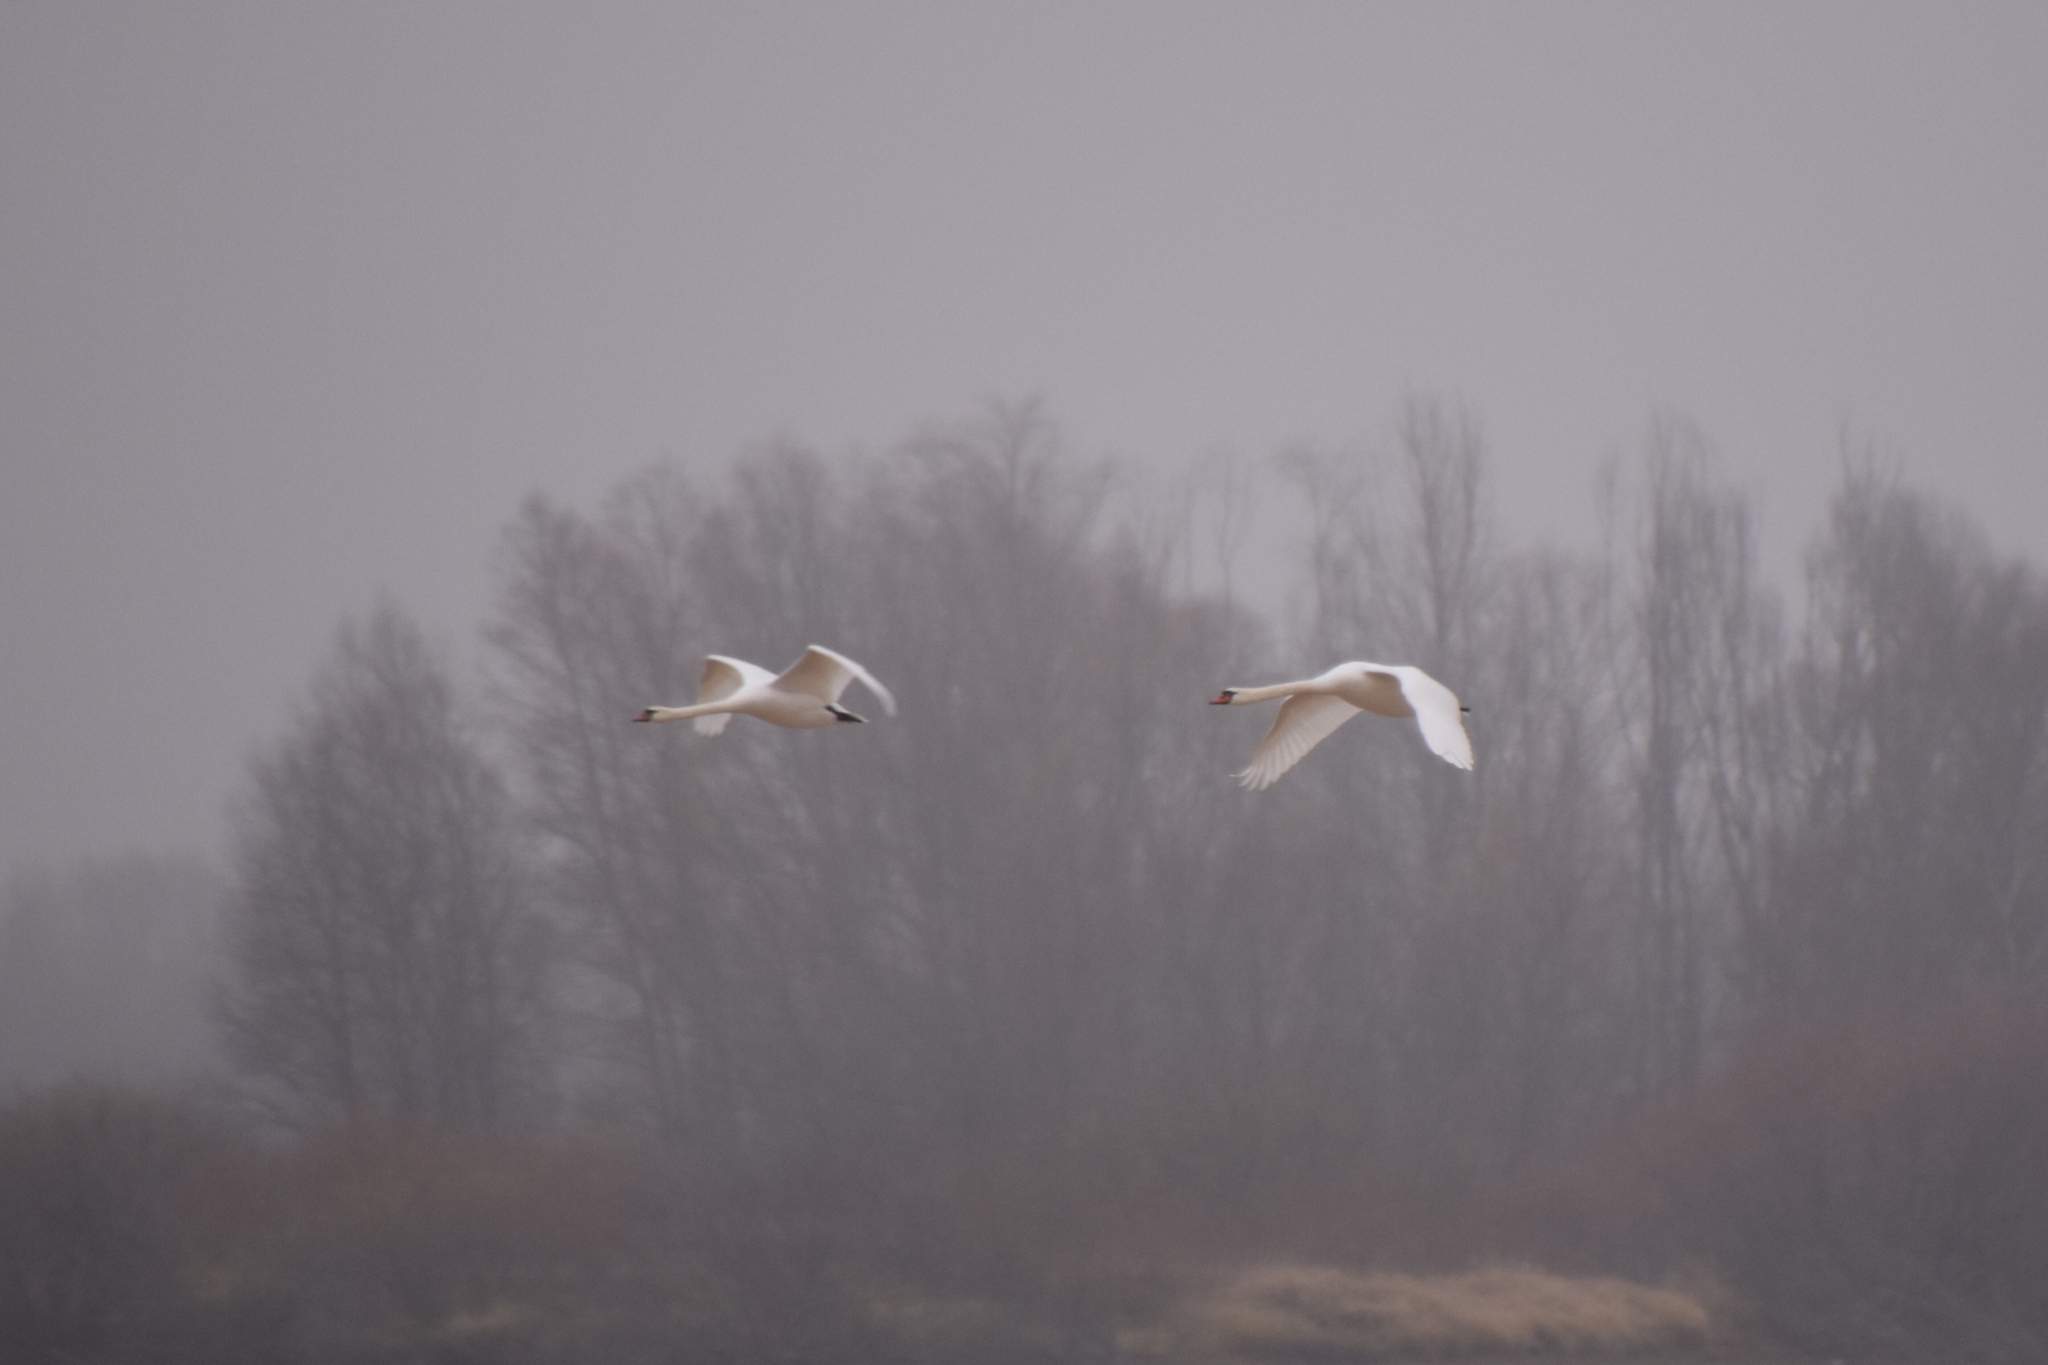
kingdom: Animalia
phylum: Chordata
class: Aves
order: Anseriformes
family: Anatidae
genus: Cygnus
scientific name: Cygnus olor
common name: Mute swan
